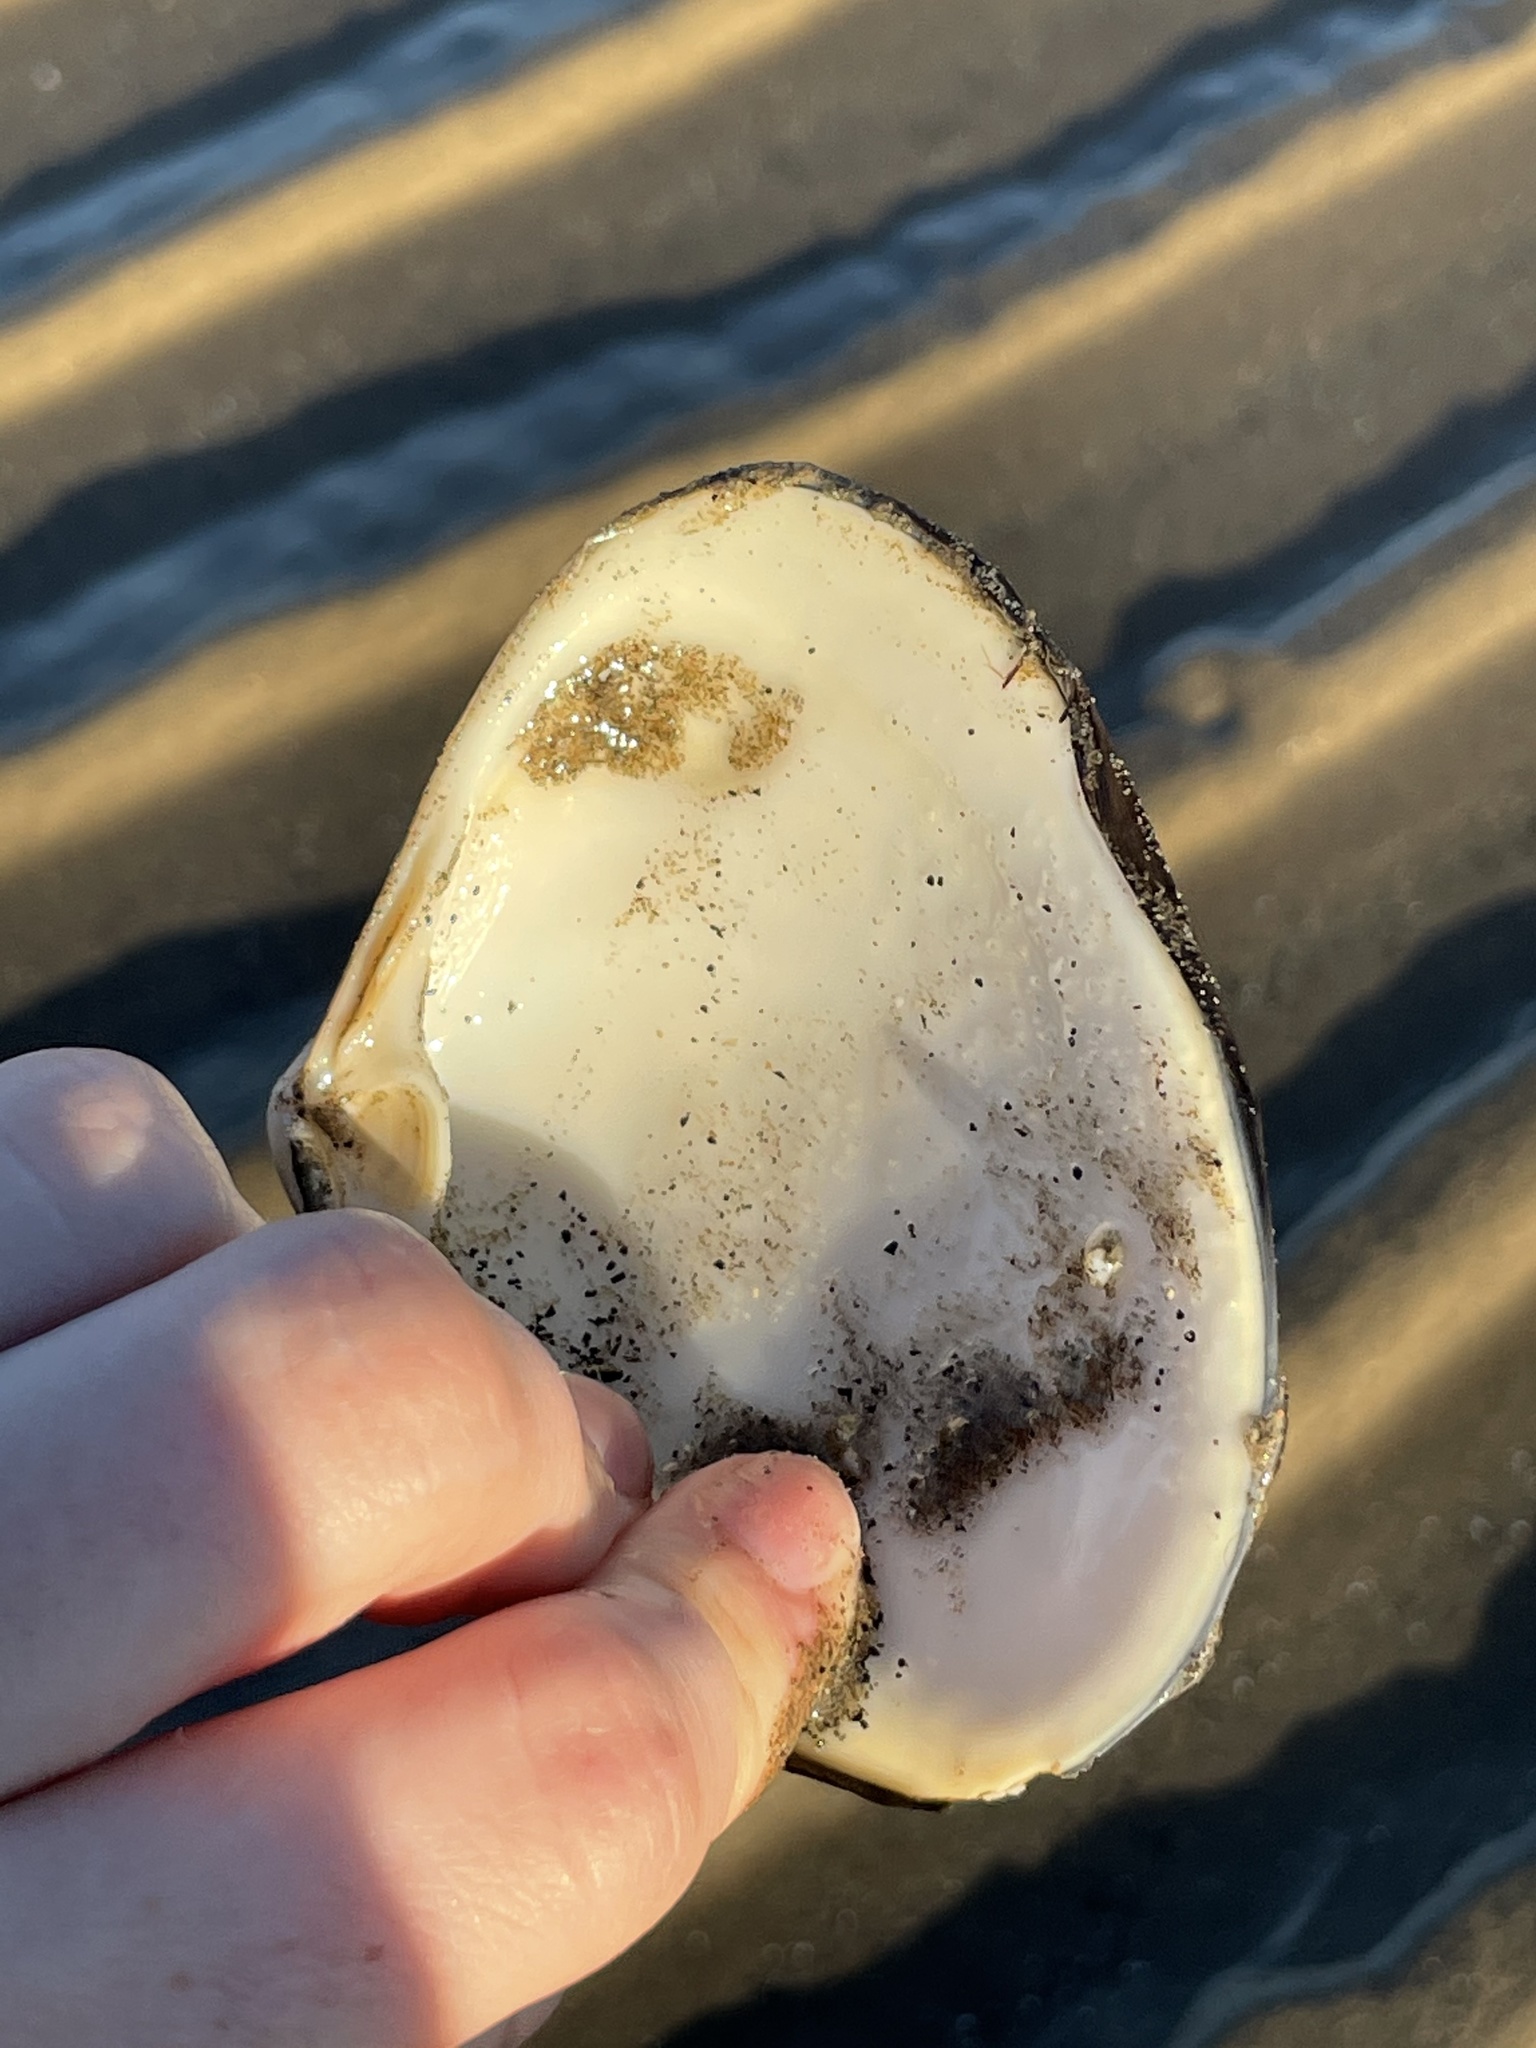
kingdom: Animalia
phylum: Mollusca
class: Bivalvia
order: Venerida
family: Mactridae
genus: Spisula
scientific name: Spisula solidissima
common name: Atlantic surf clam
